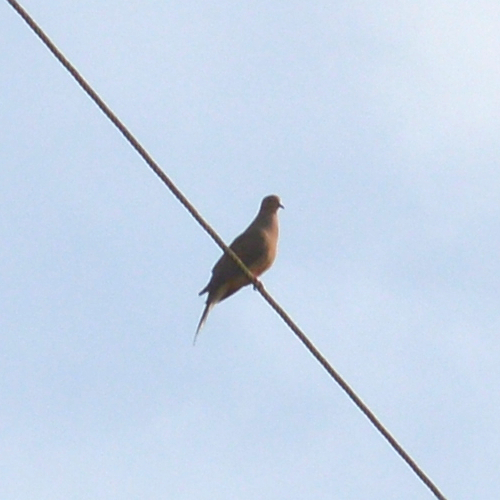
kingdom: Animalia
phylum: Chordata
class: Aves
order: Columbiformes
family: Columbidae
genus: Zenaida
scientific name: Zenaida macroura
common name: Mourning dove
